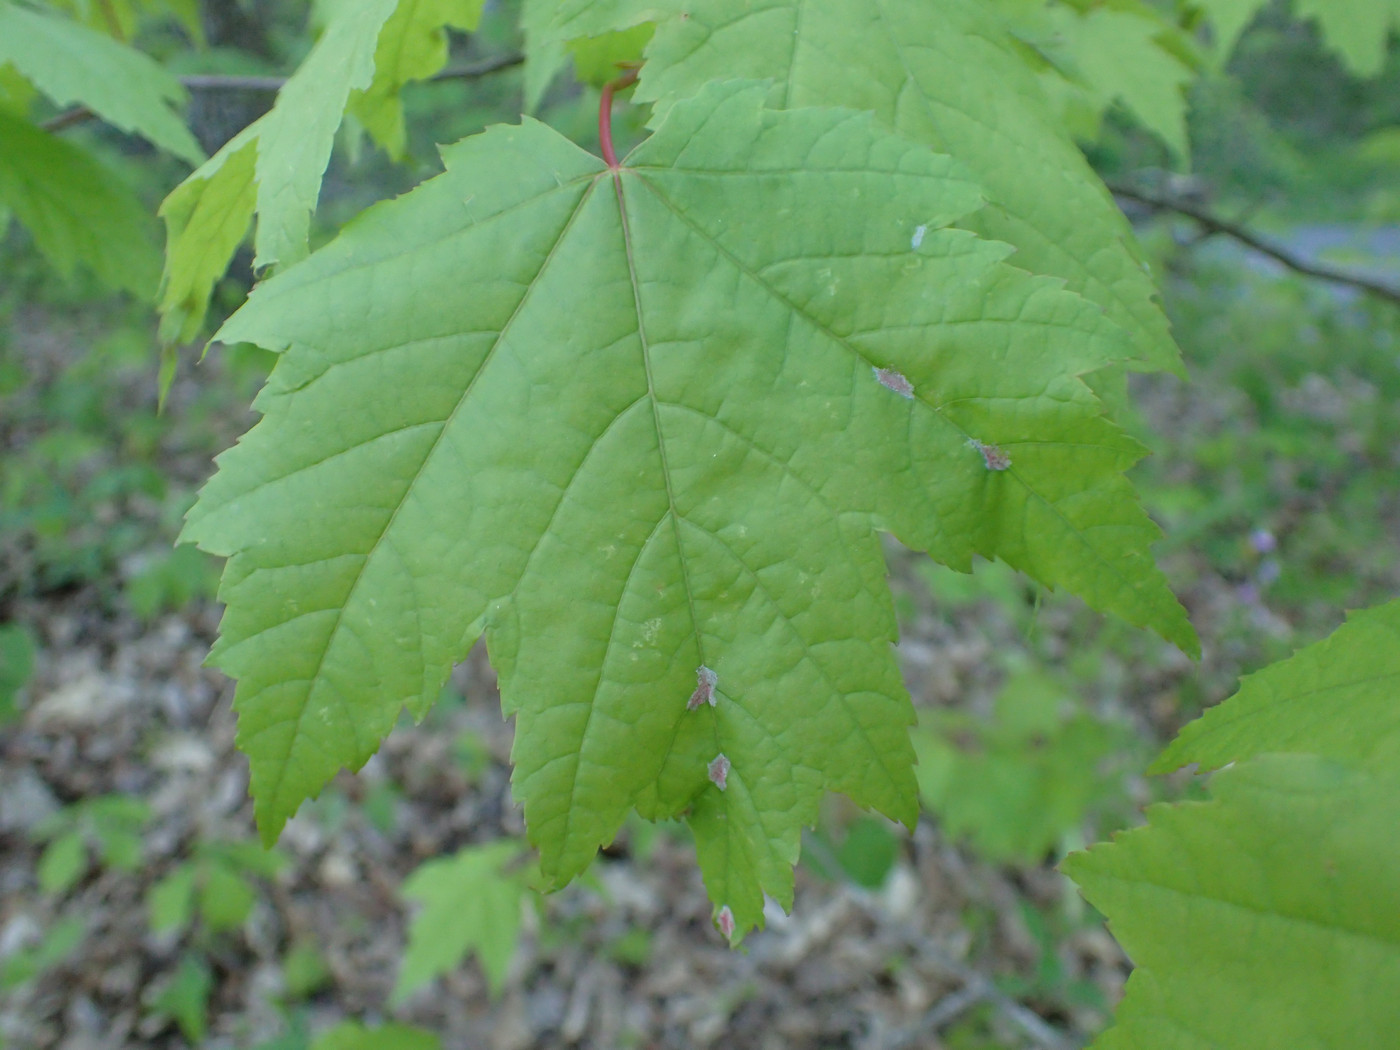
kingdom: Animalia
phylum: Arthropoda
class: Arachnida
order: Trombidiformes
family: Eriophyidae
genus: Aculus
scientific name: Aculus
